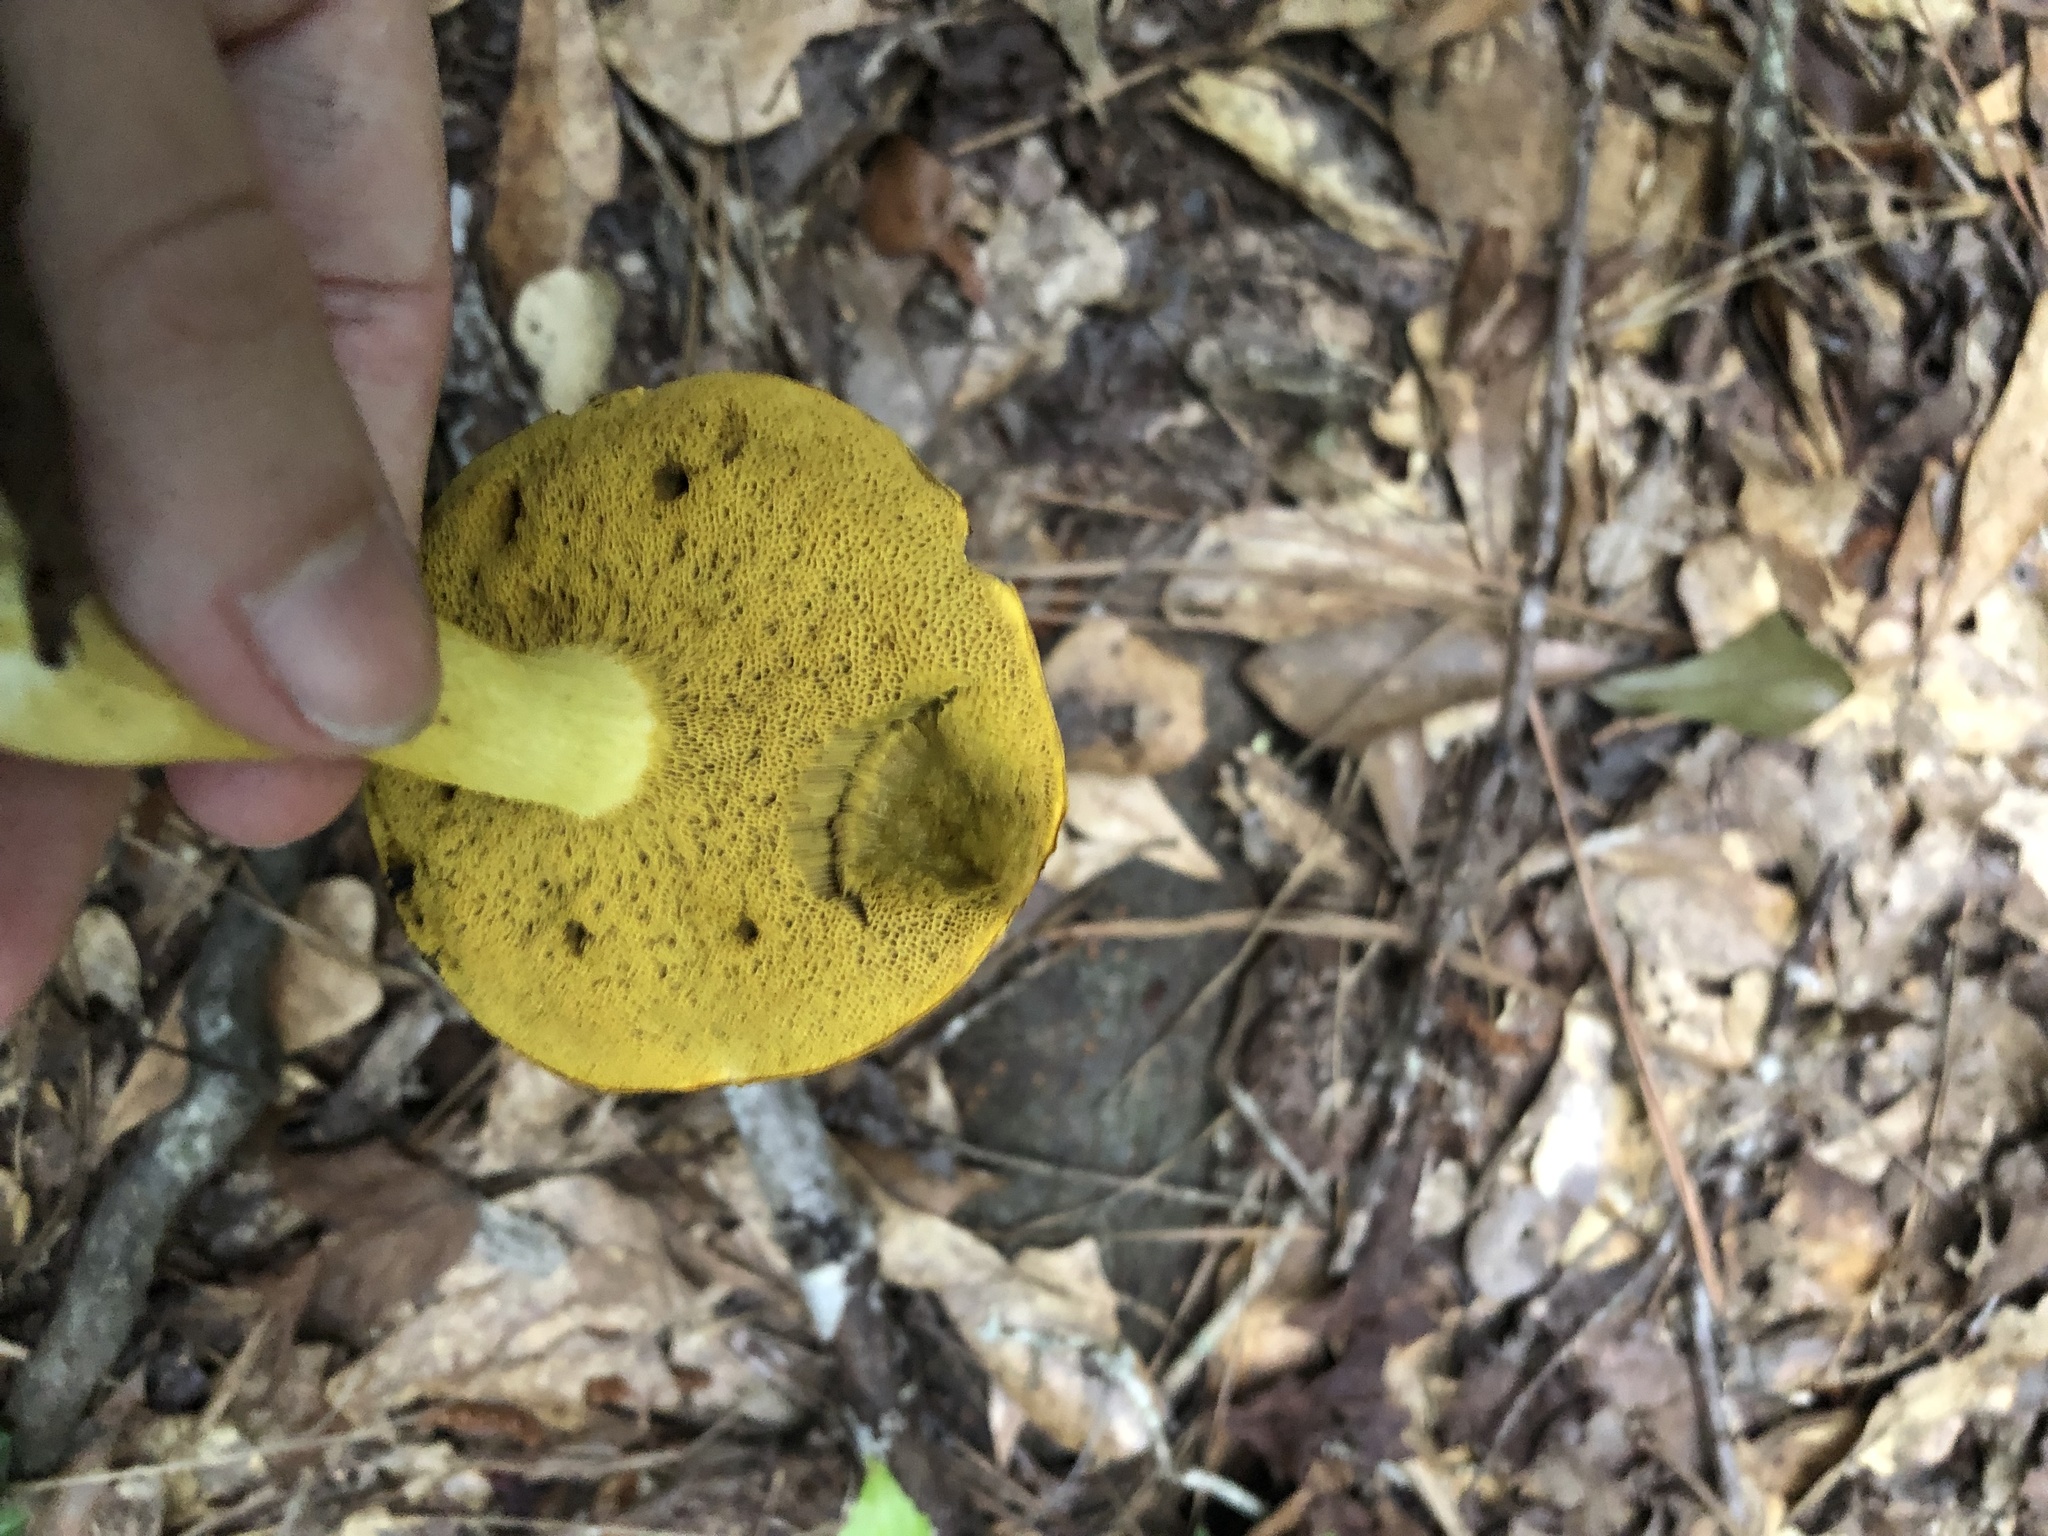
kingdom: Fungi
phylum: Basidiomycota
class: Agaricomycetes
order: Boletales
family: Boletaceae
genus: Retiboletus
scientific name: Retiboletus ornatipes
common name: Ornate-stalked bolete
